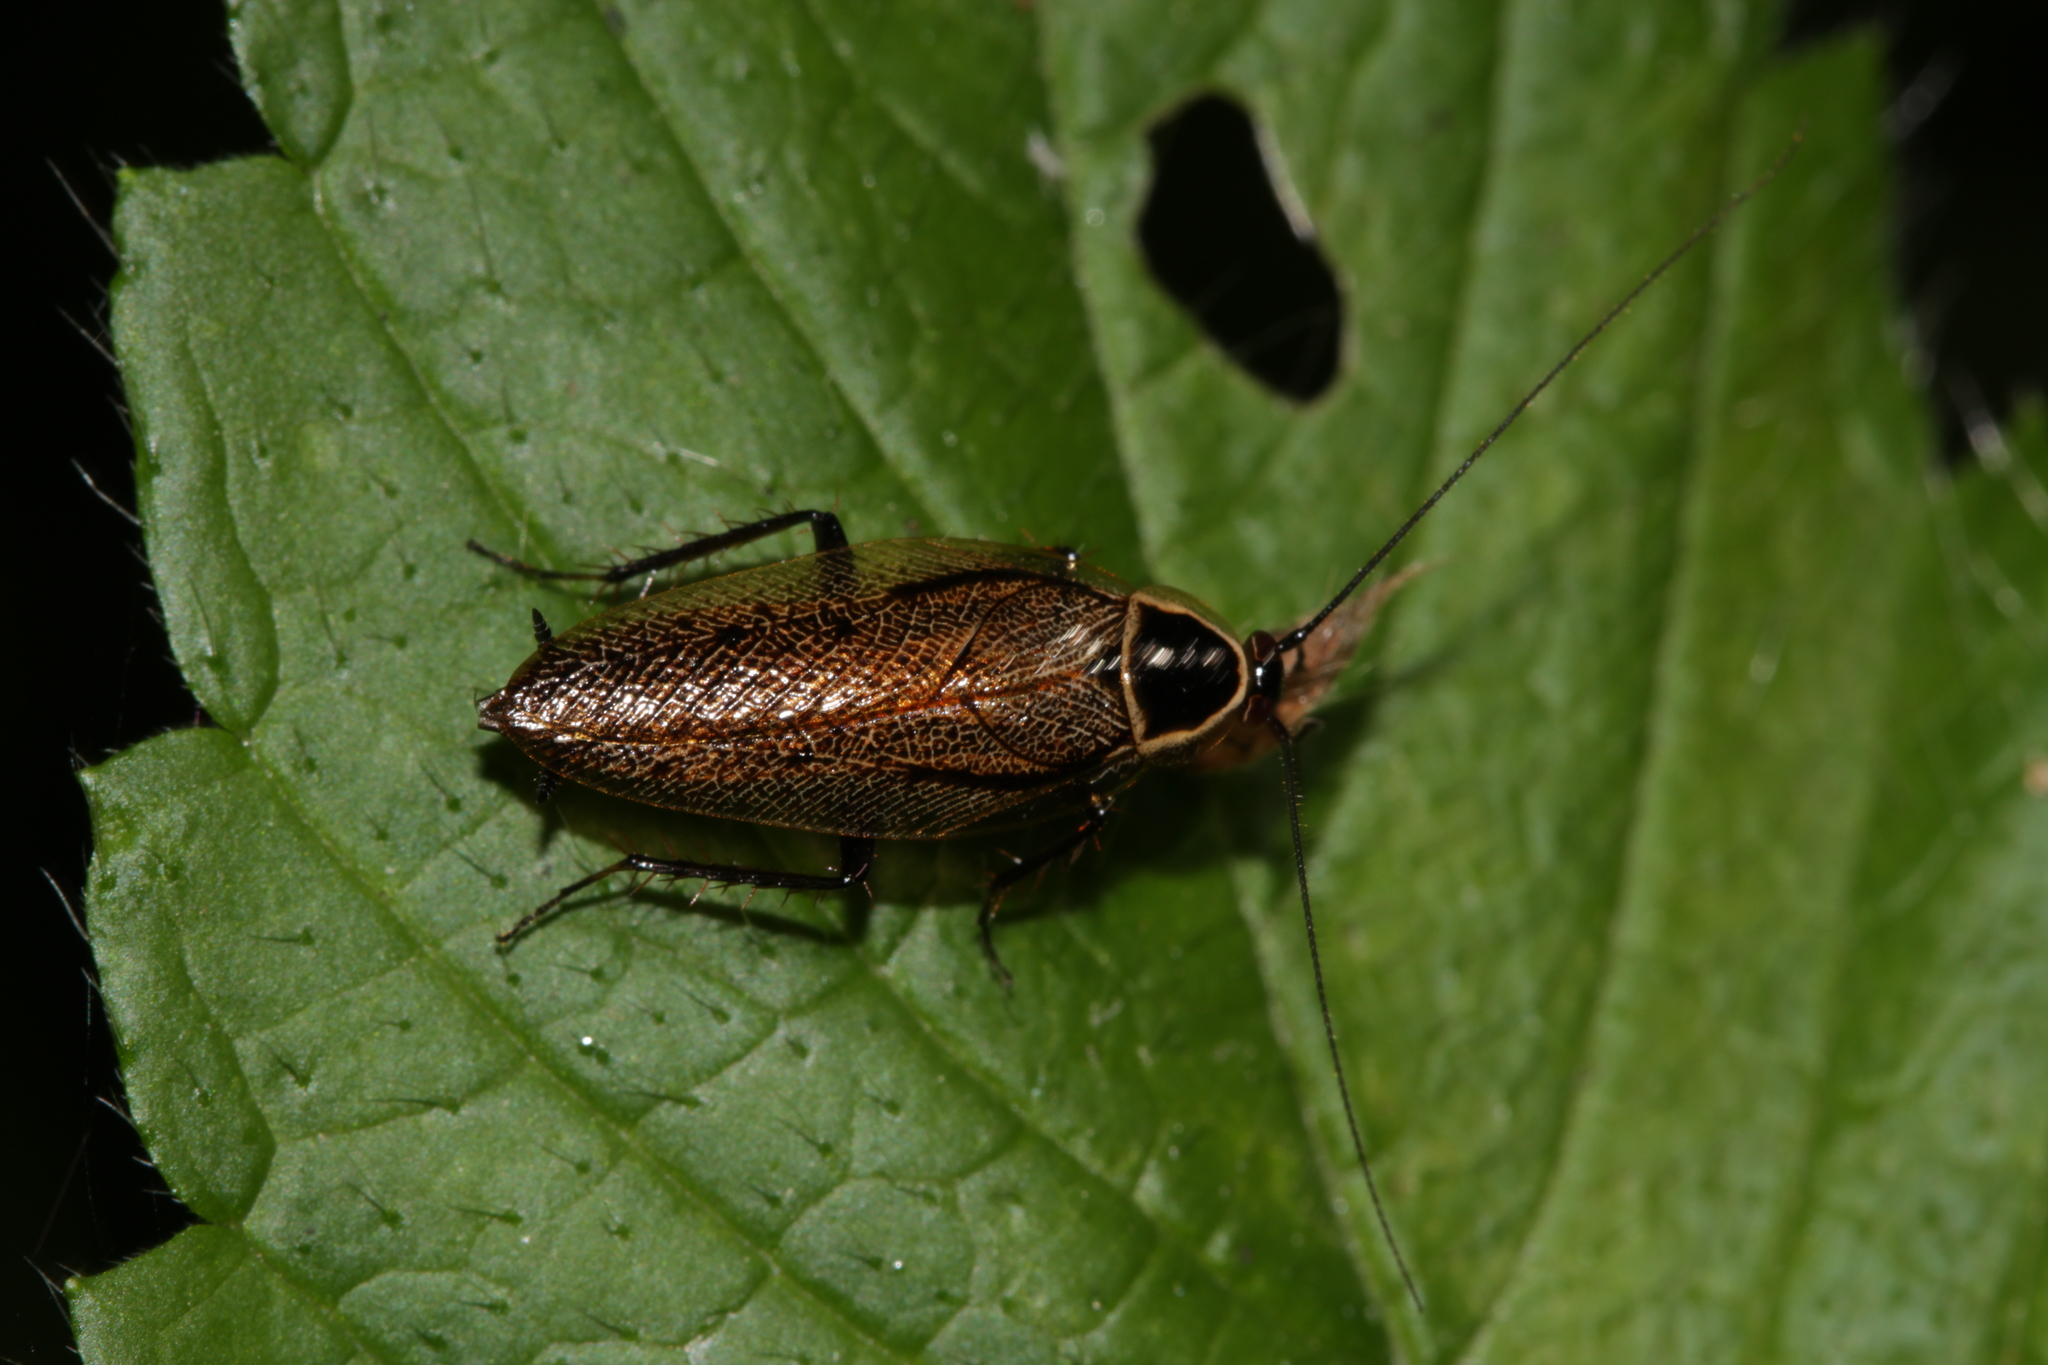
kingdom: Animalia
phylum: Arthropoda
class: Insecta
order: Blattodea
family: Ectobiidae
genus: Ectobius
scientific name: Ectobius sylvestris
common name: Forest cockroach
